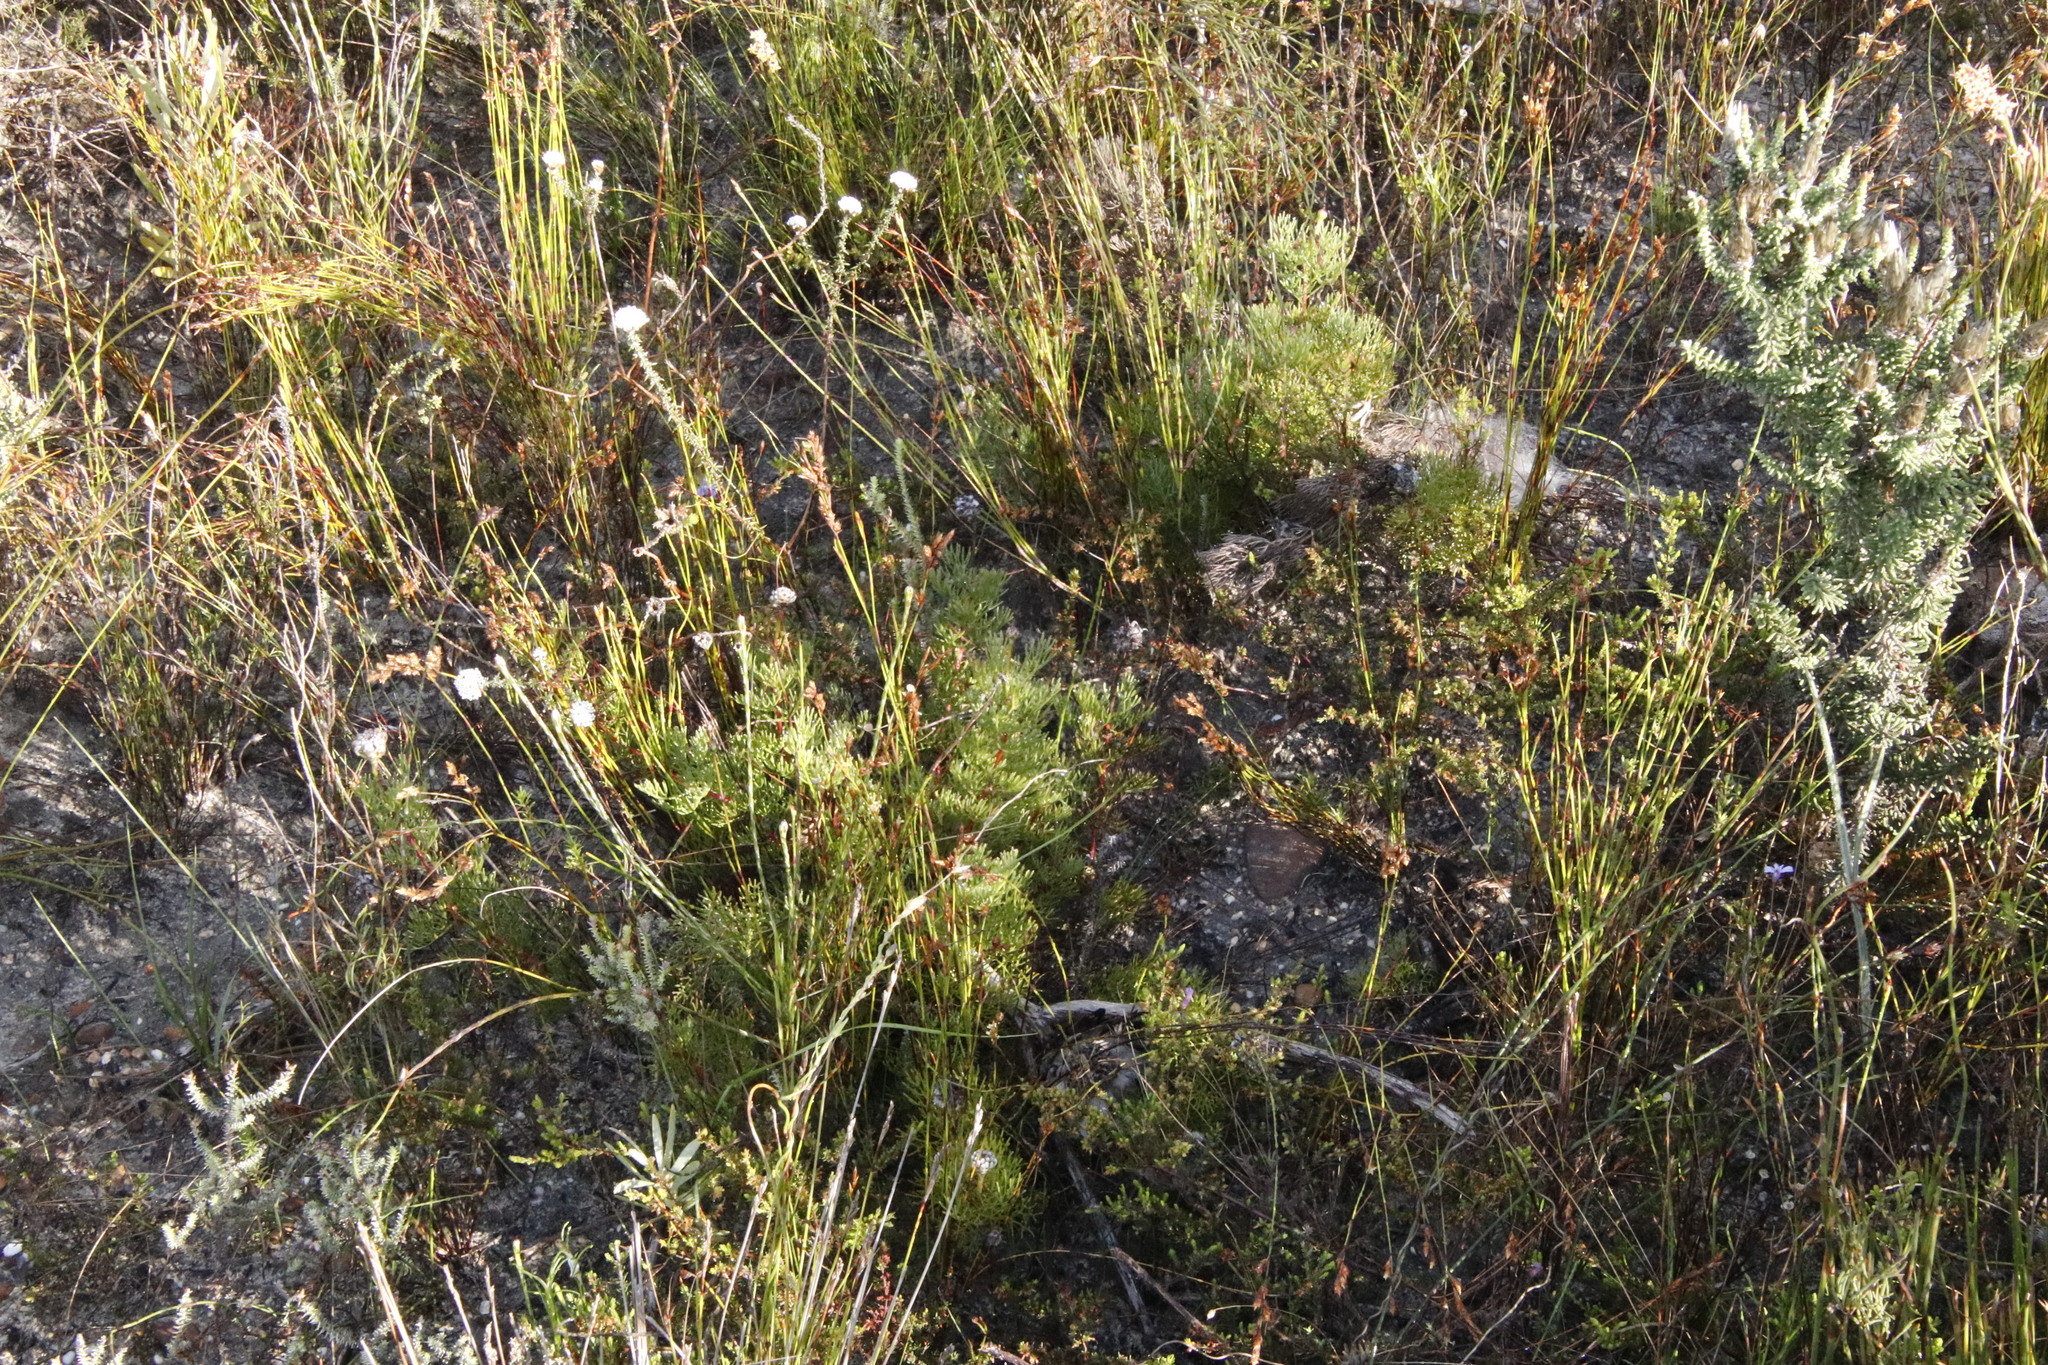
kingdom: Plantae
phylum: Tracheophyta
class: Magnoliopsida
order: Proteales
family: Proteaceae
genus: Serruria
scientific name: Serruria gremialis
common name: Riviersonderend spiderhead
